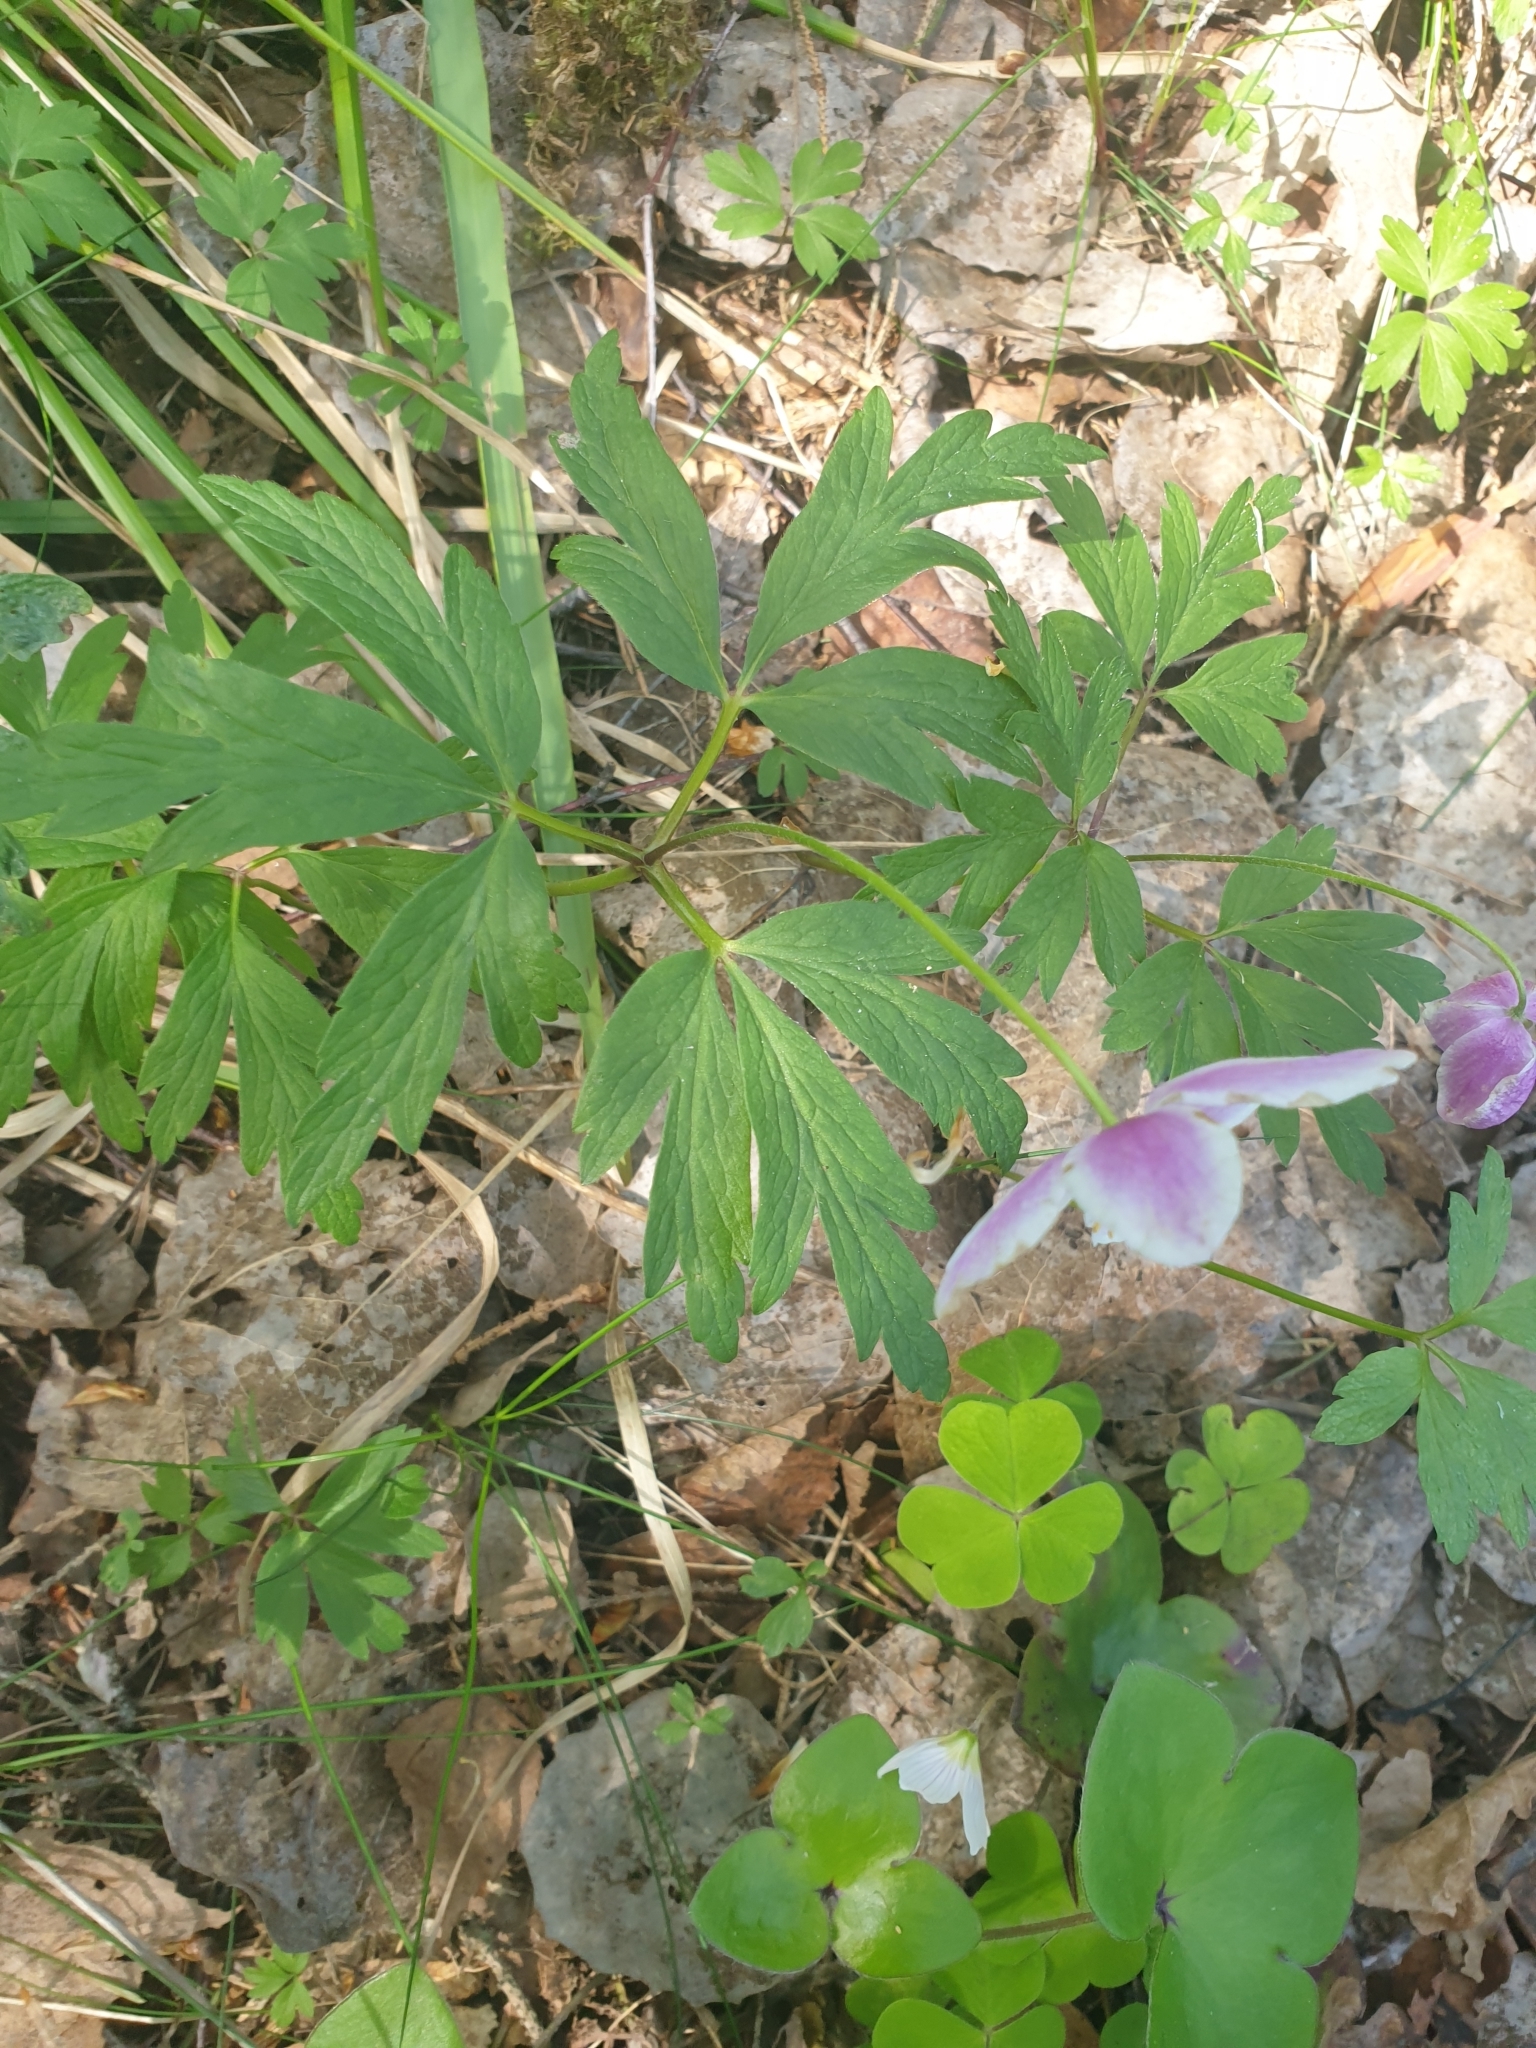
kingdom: Plantae
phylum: Tracheophyta
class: Magnoliopsida
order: Ranunculales
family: Ranunculaceae
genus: Anemone
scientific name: Anemone nemorosa
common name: Wood anemone
